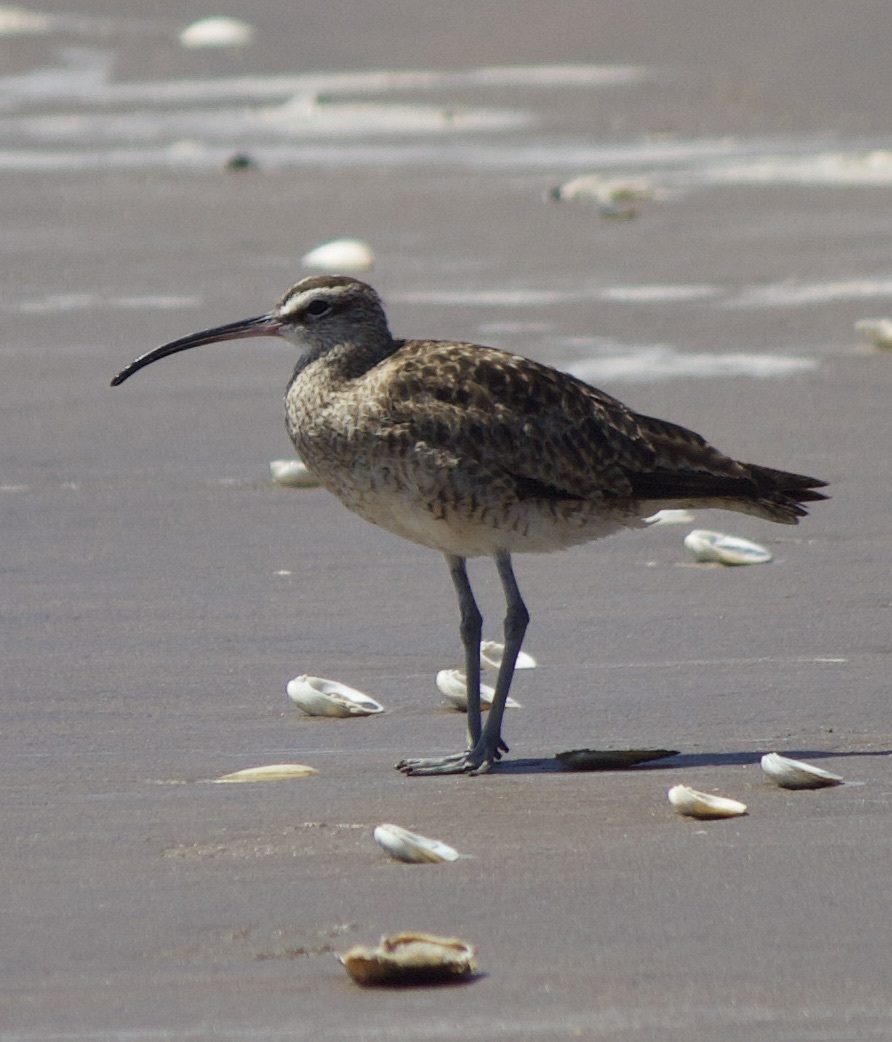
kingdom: Animalia
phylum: Chordata
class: Aves
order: Charadriiformes
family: Scolopacidae
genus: Numenius
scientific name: Numenius phaeopus
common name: Whimbrel
